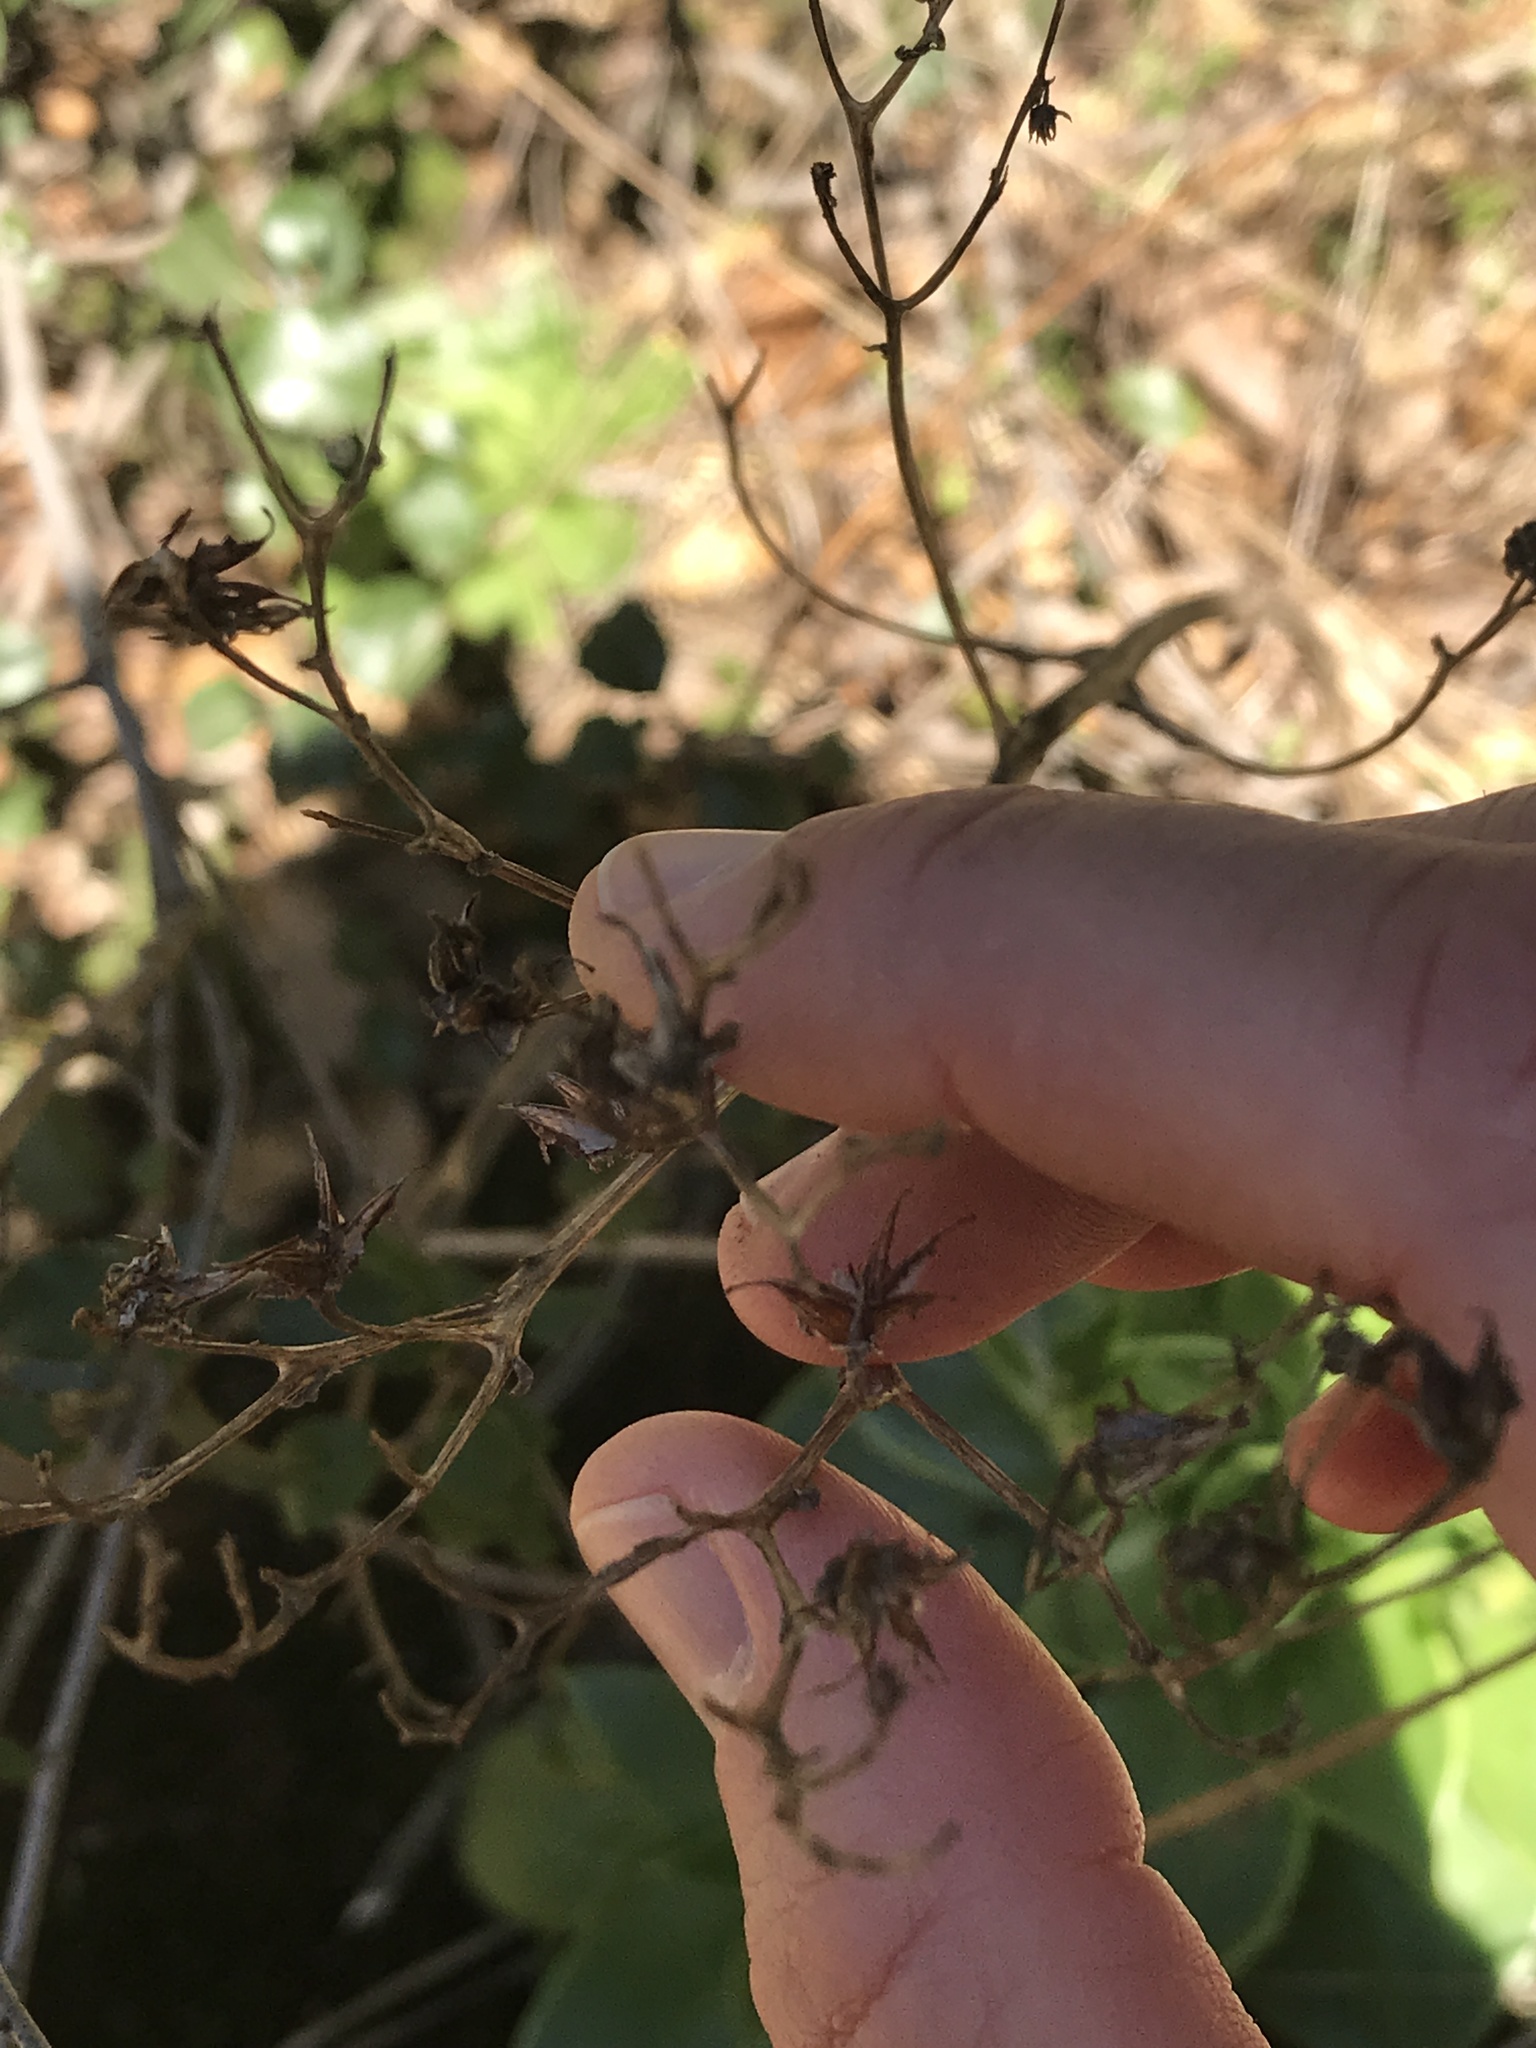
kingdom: Plantae
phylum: Tracheophyta
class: Magnoliopsida
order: Saxifragales
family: Crassulaceae
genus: Dudleya
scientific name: Dudleya cymosa
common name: Canyon dudleya
